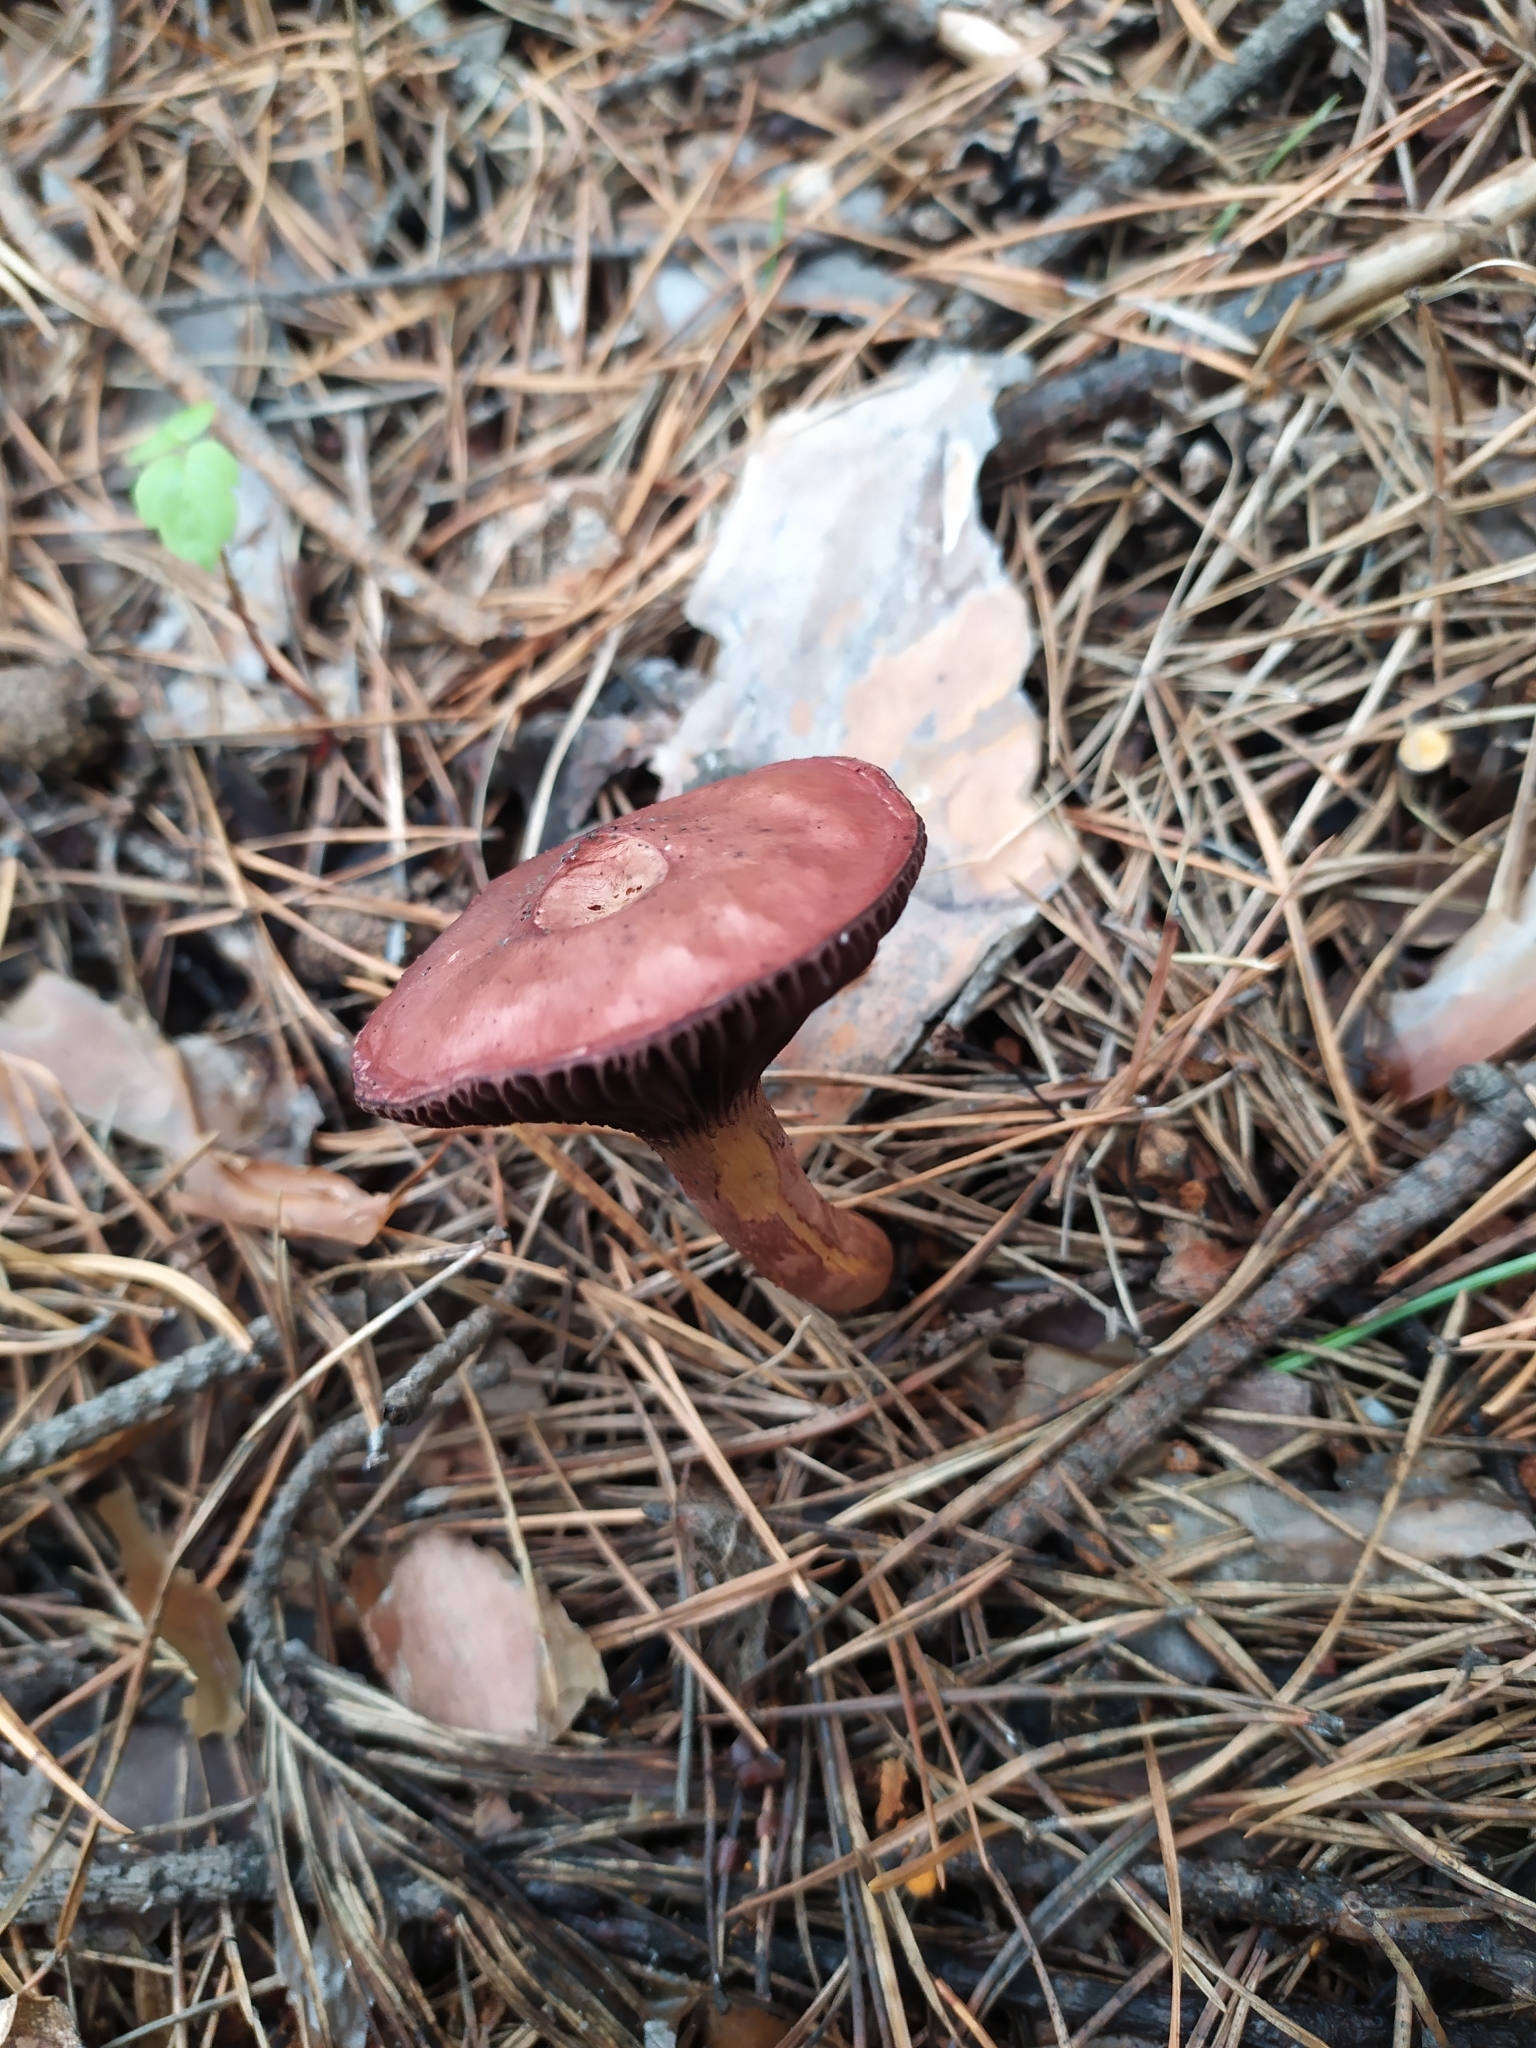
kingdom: Fungi
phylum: Basidiomycota
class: Agaricomycetes
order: Boletales
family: Gomphidiaceae
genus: Chroogomphus
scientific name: Chroogomphus rutilus
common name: Copper spike
